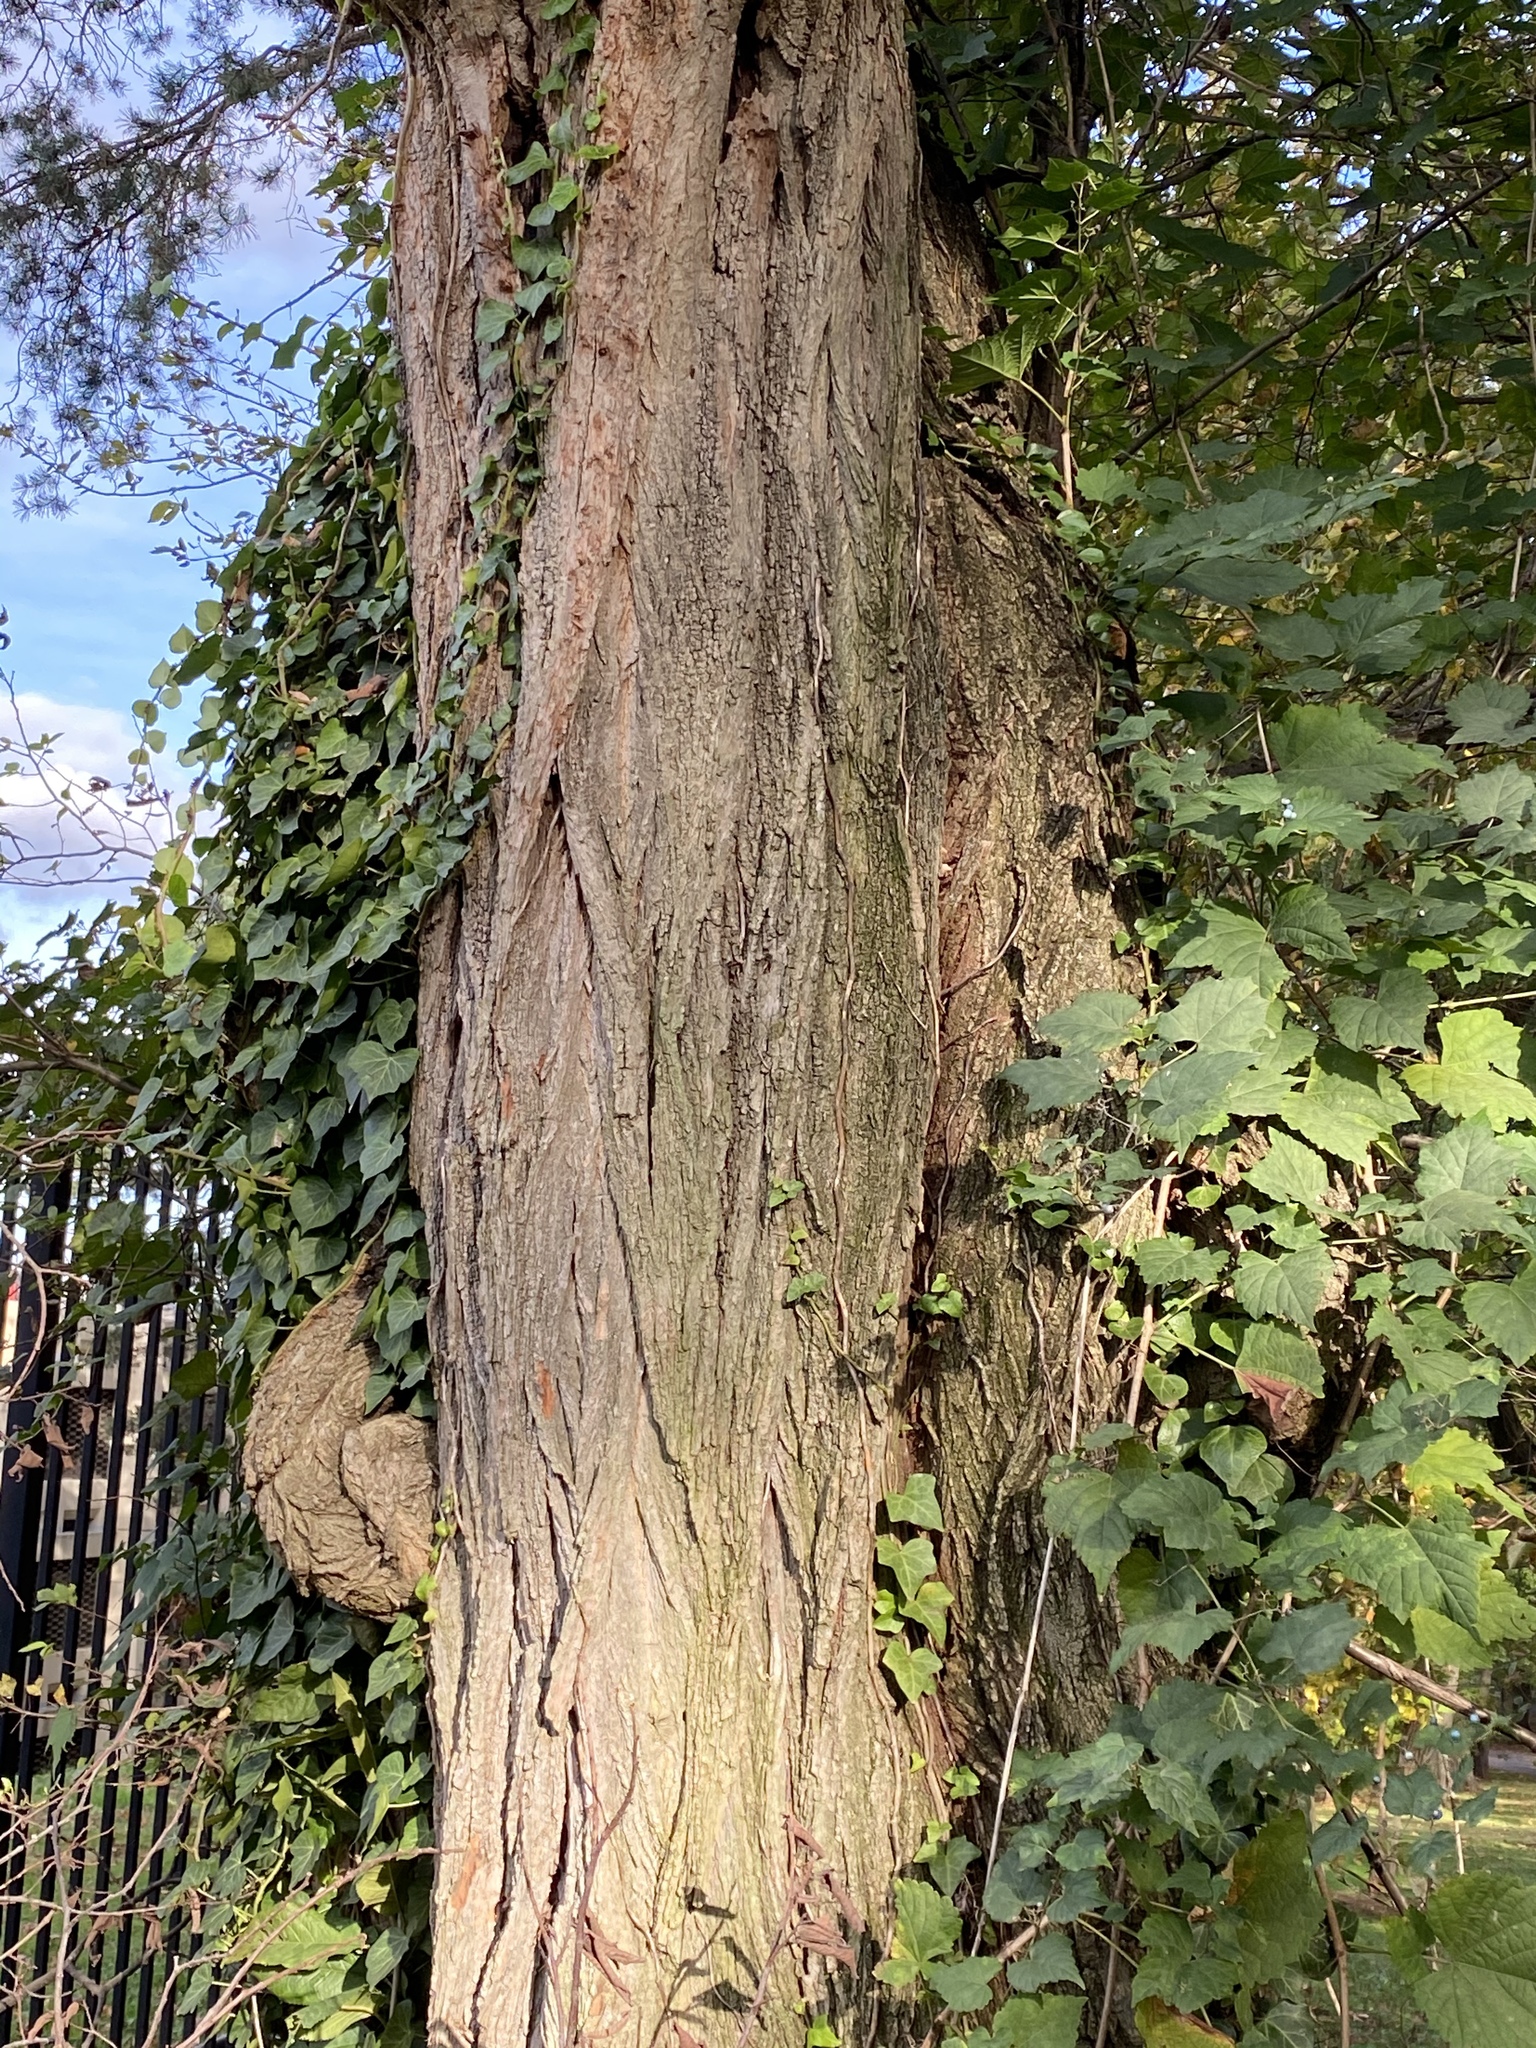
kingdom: Plantae
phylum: Tracheophyta
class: Magnoliopsida
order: Fabales
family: Fabaceae
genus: Robinia
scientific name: Robinia pseudoacacia
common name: Black locust
